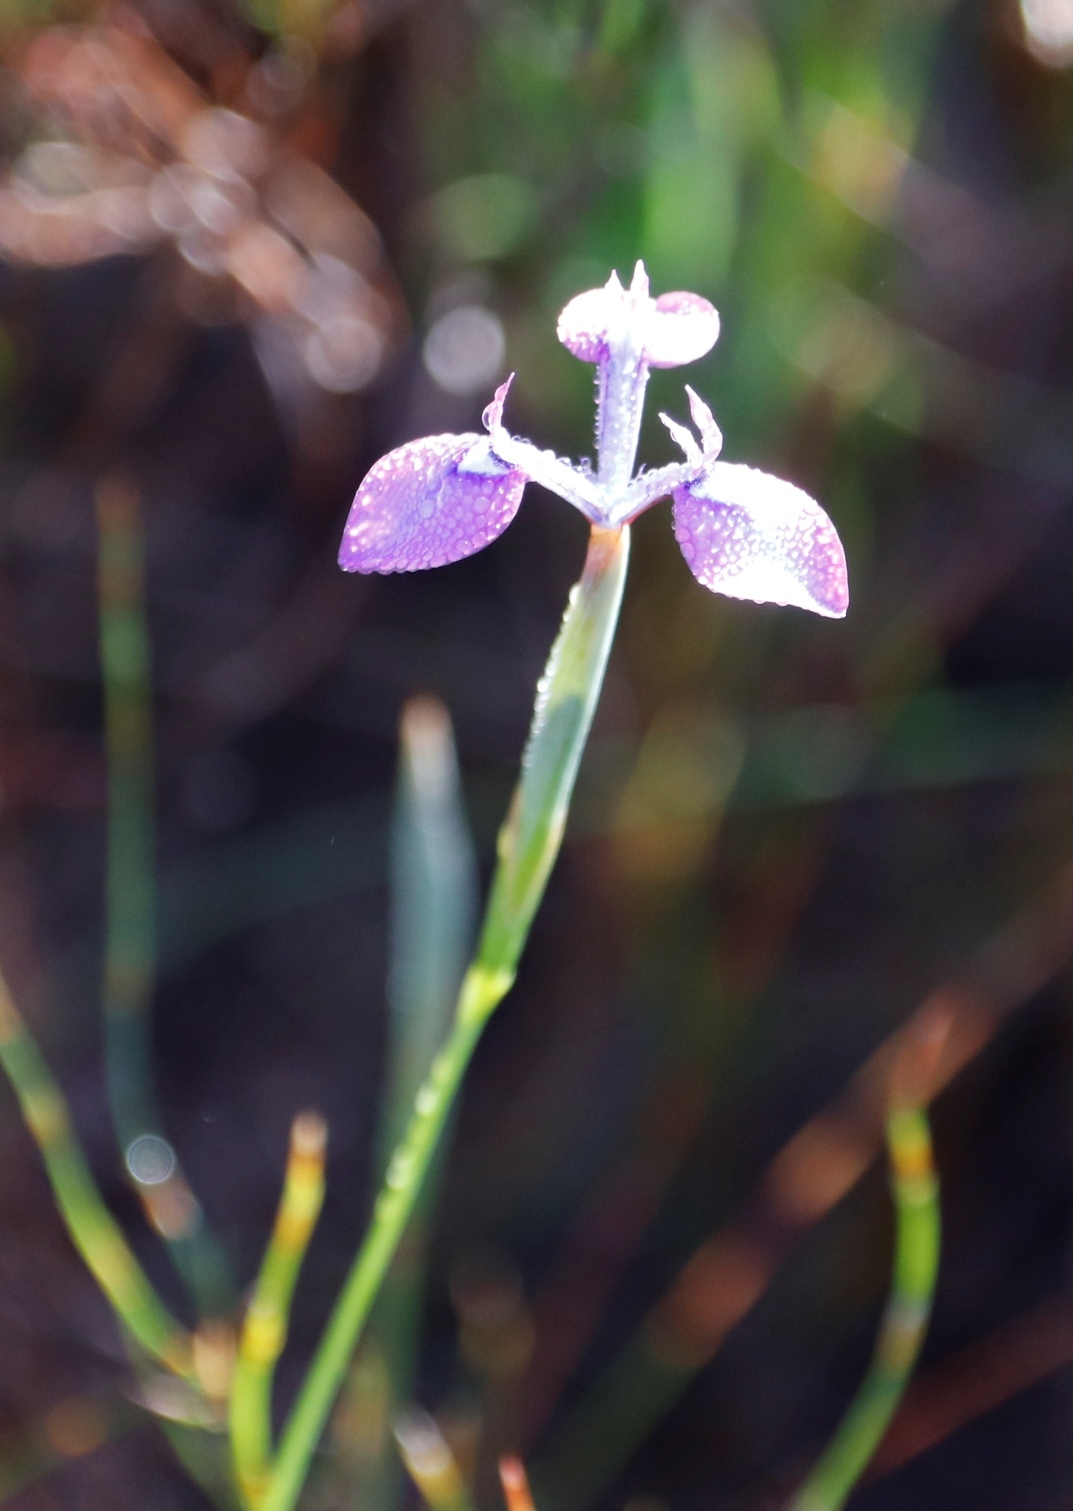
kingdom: Plantae
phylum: Tracheophyta
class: Liliopsida
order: Asparagales
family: Iridaceae
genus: Moraea
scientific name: Moraea tripetala
